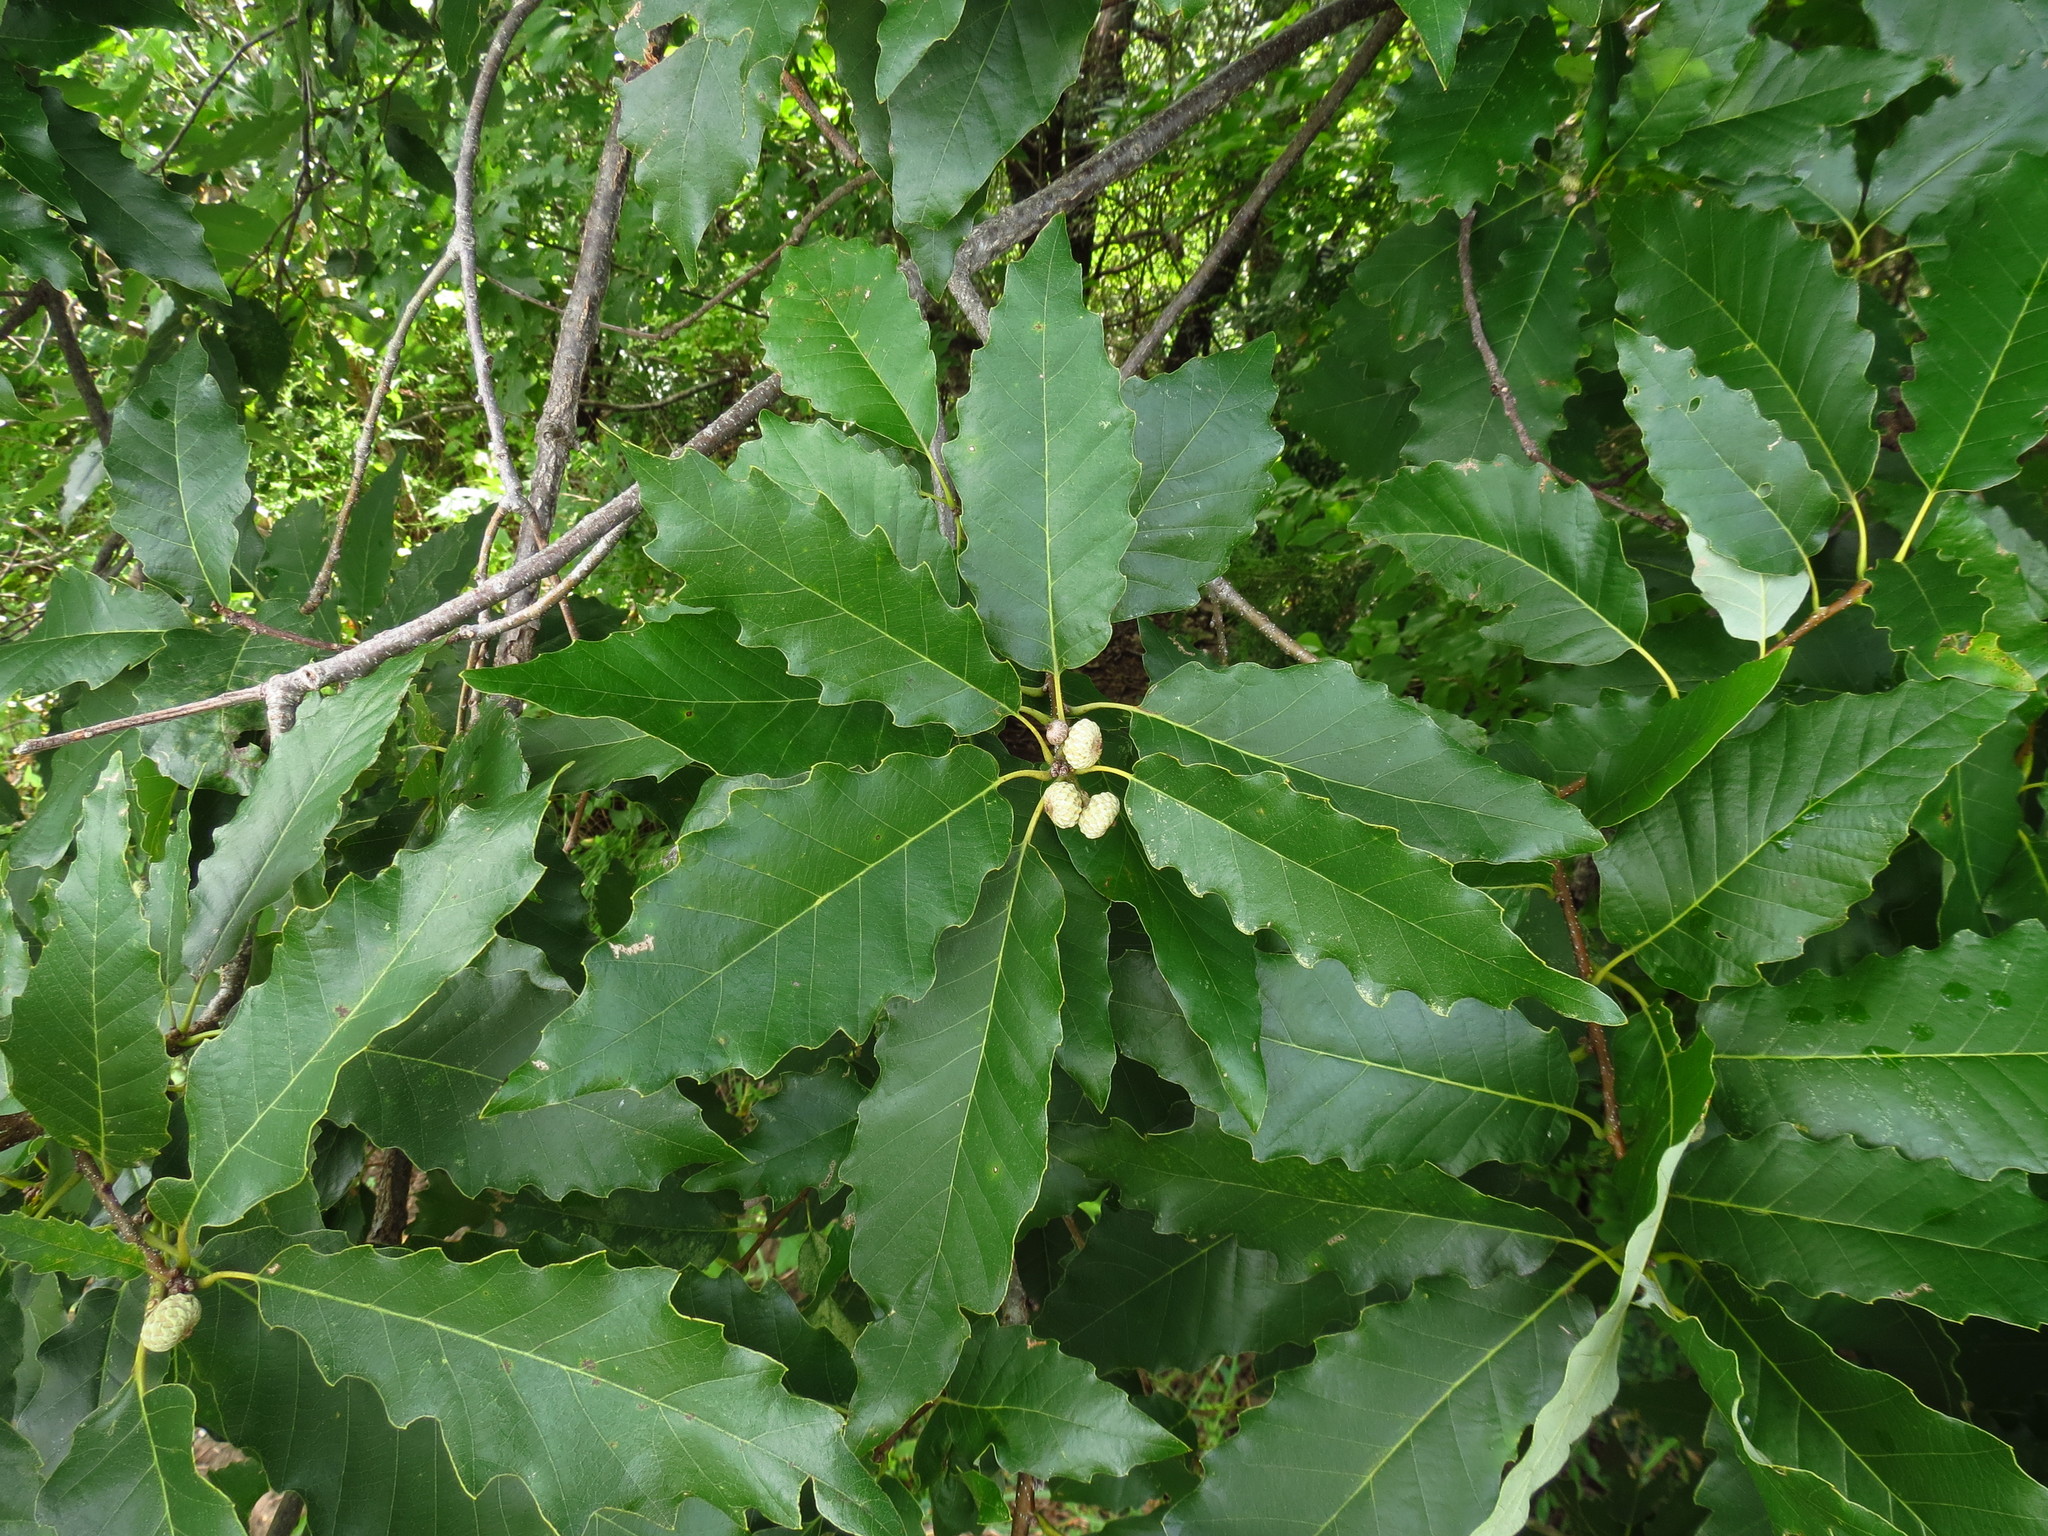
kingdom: Plantae
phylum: Tracheophyta
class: Magnoliopsida
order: Fagales
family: Fagaceae
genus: Quercus
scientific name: Quercus muehlenbergii
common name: Chinkapin oak
